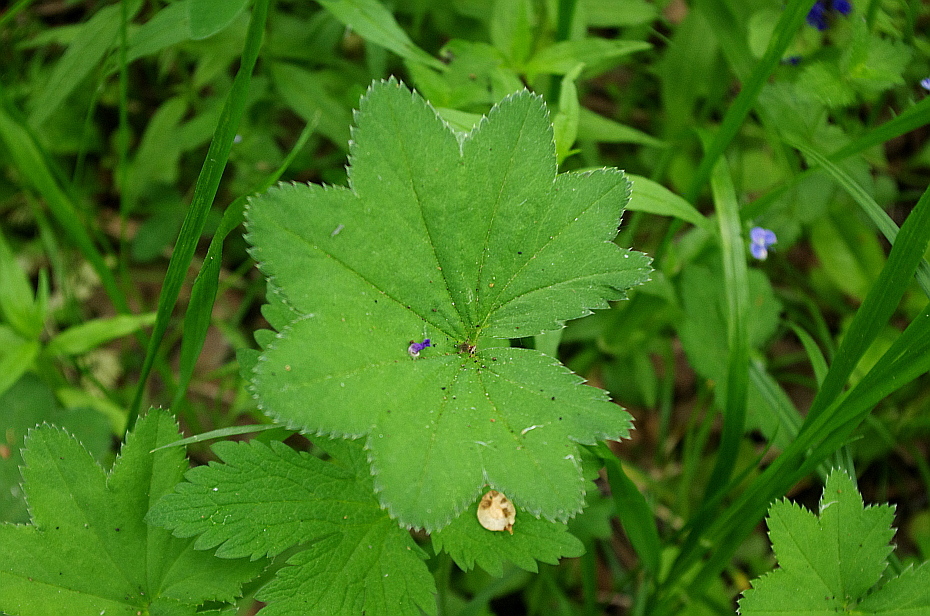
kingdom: Plantae
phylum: Tracheophyta
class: Magnoliopsida
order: Rosales
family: Rosaceae
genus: Alchemilla
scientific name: Alchemilla
